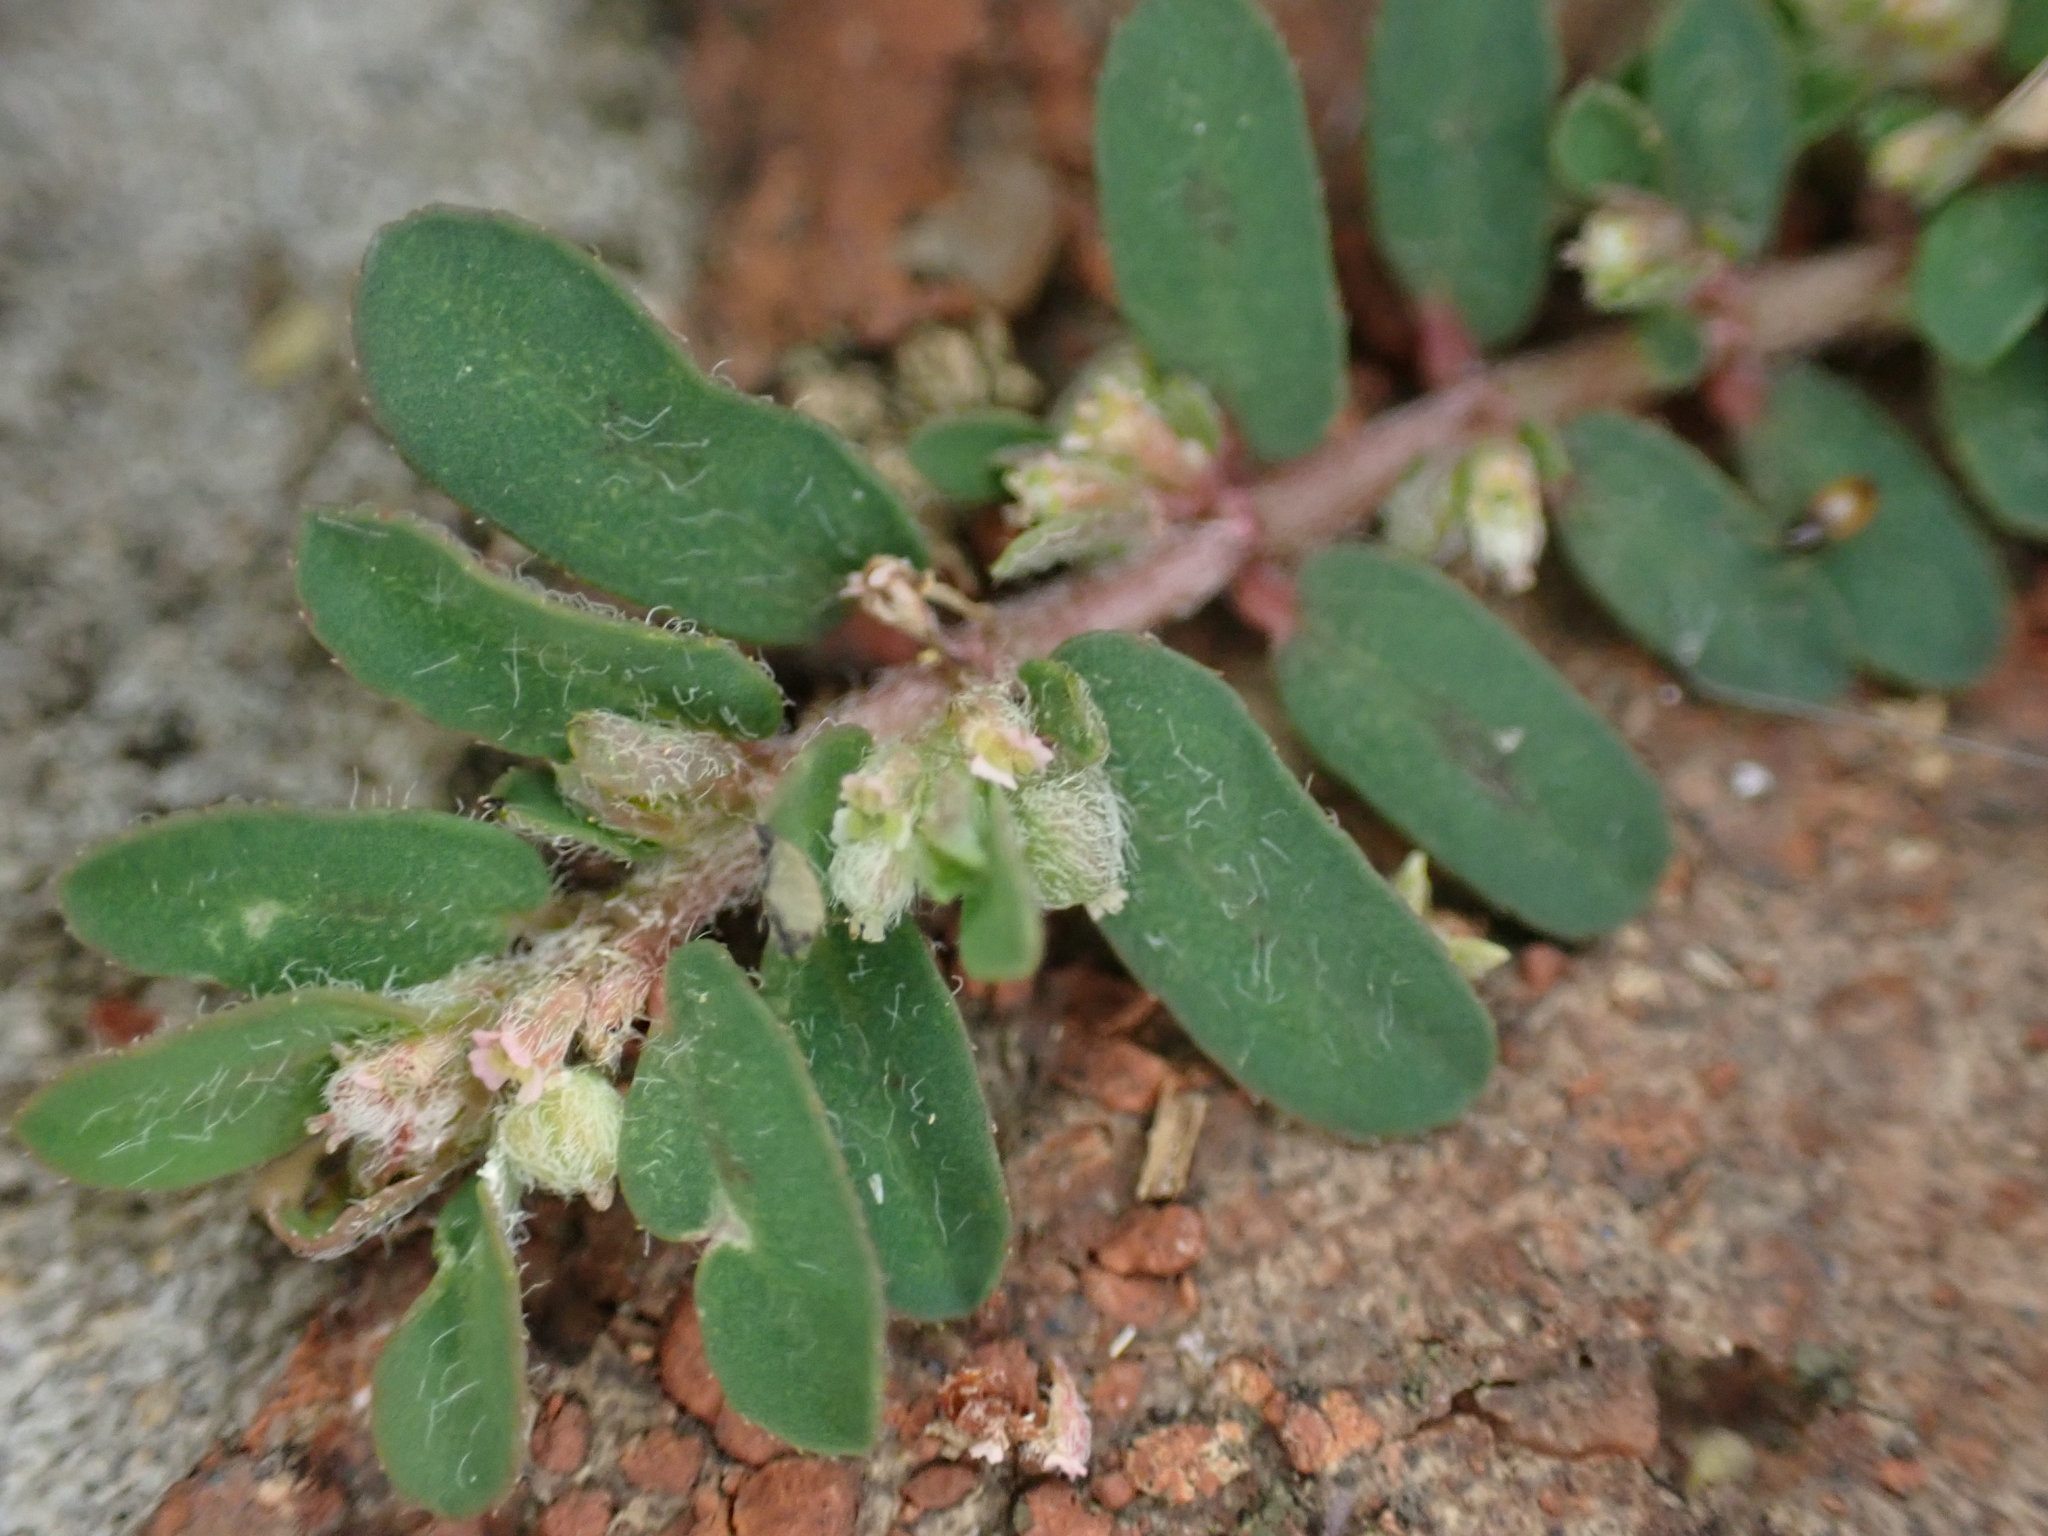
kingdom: Plantae
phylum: Tracheophyta
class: Magnoliopsida
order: Malpighiales
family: Euphorbiaceae
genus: Euphorbia
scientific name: Euphorbia maculata
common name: Spotted spurge
